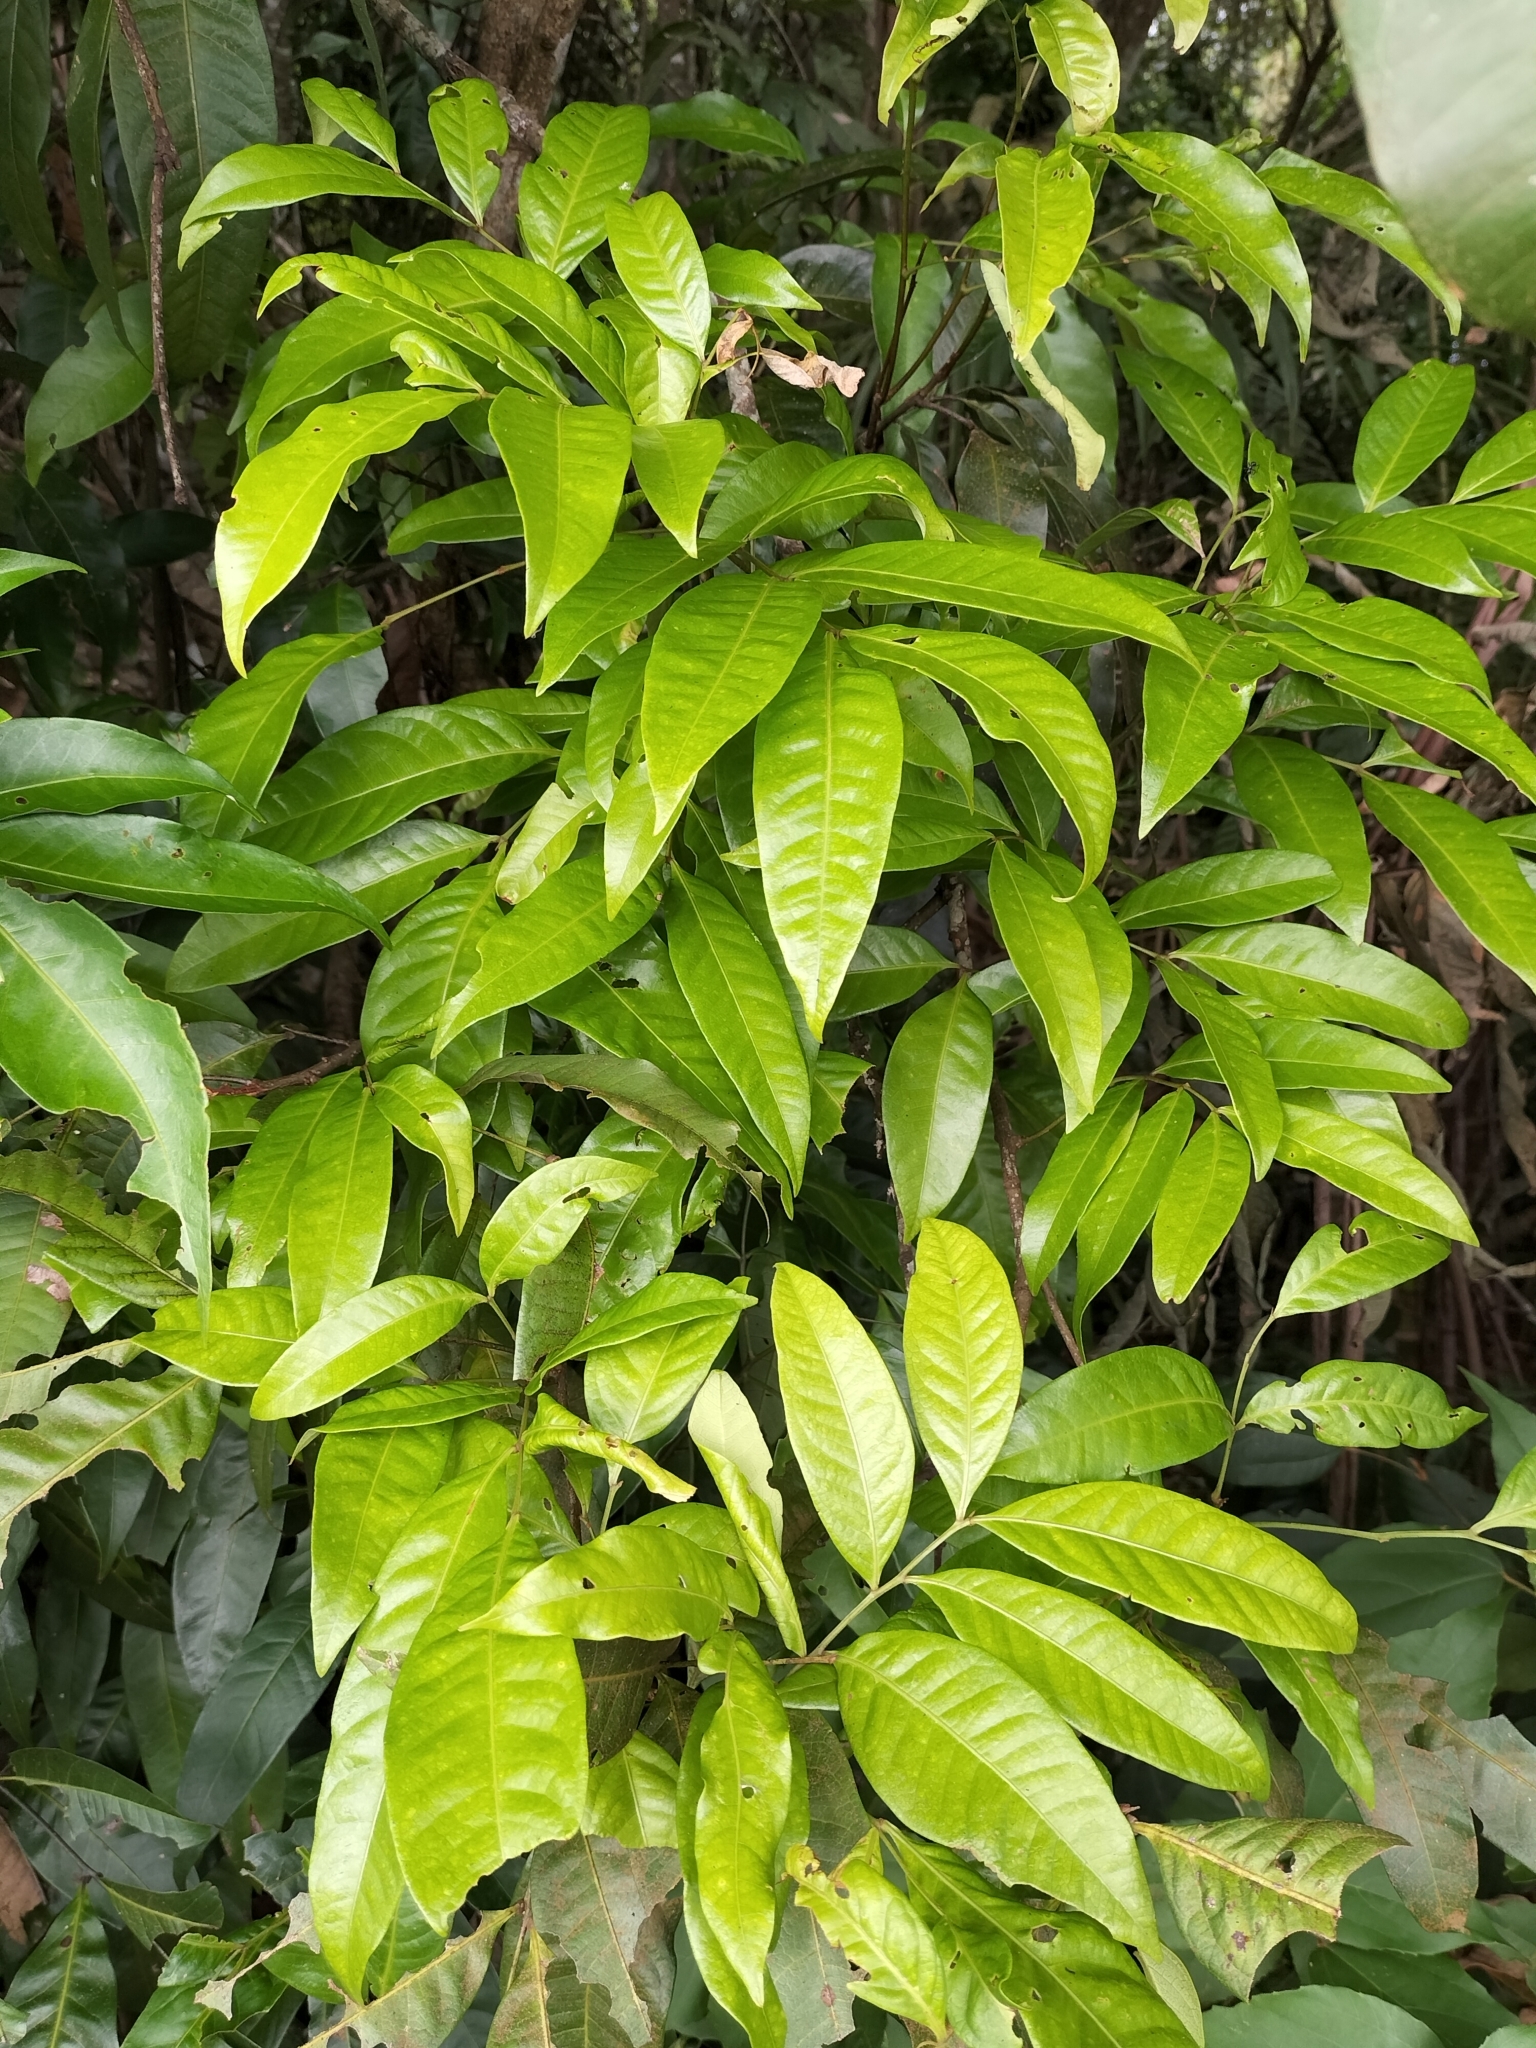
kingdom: Plantae
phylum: Tracheophyta
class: Magnoliopsida
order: Sapindales
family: Sapindaceae
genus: Guioa
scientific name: Guioa acutifolia
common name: Northern guioa
